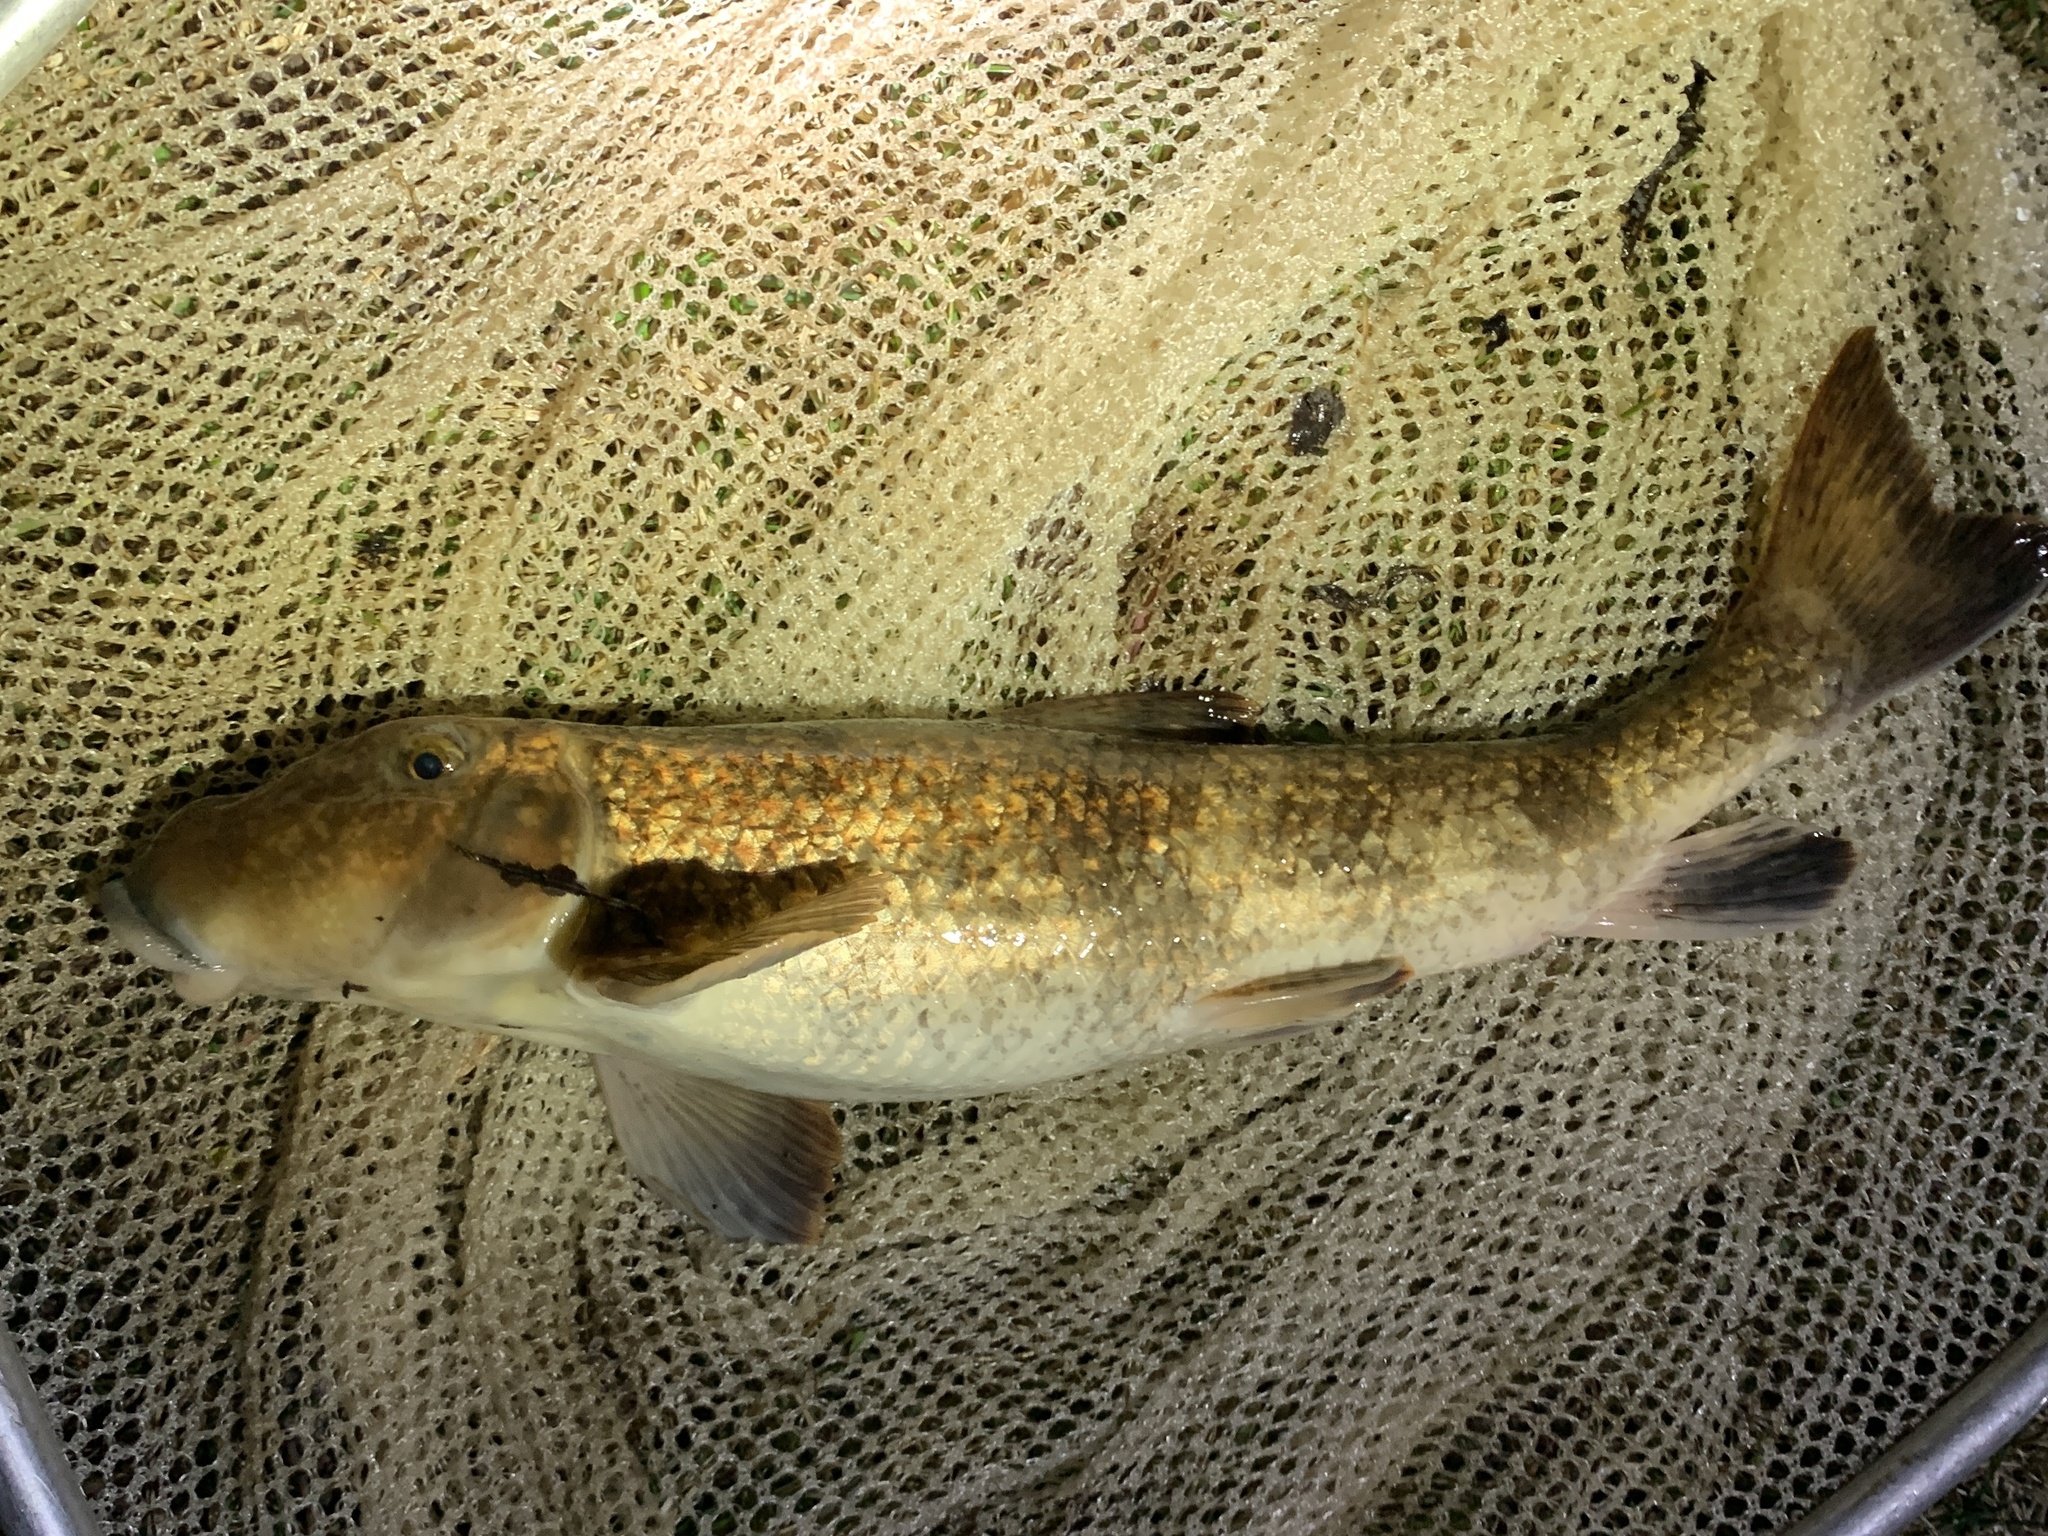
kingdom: Animalia
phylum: Chordata
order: Cypriniformes
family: Catostomidae
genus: Hypentelium
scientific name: Hypentelium nigricans
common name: Northern hog sucker
